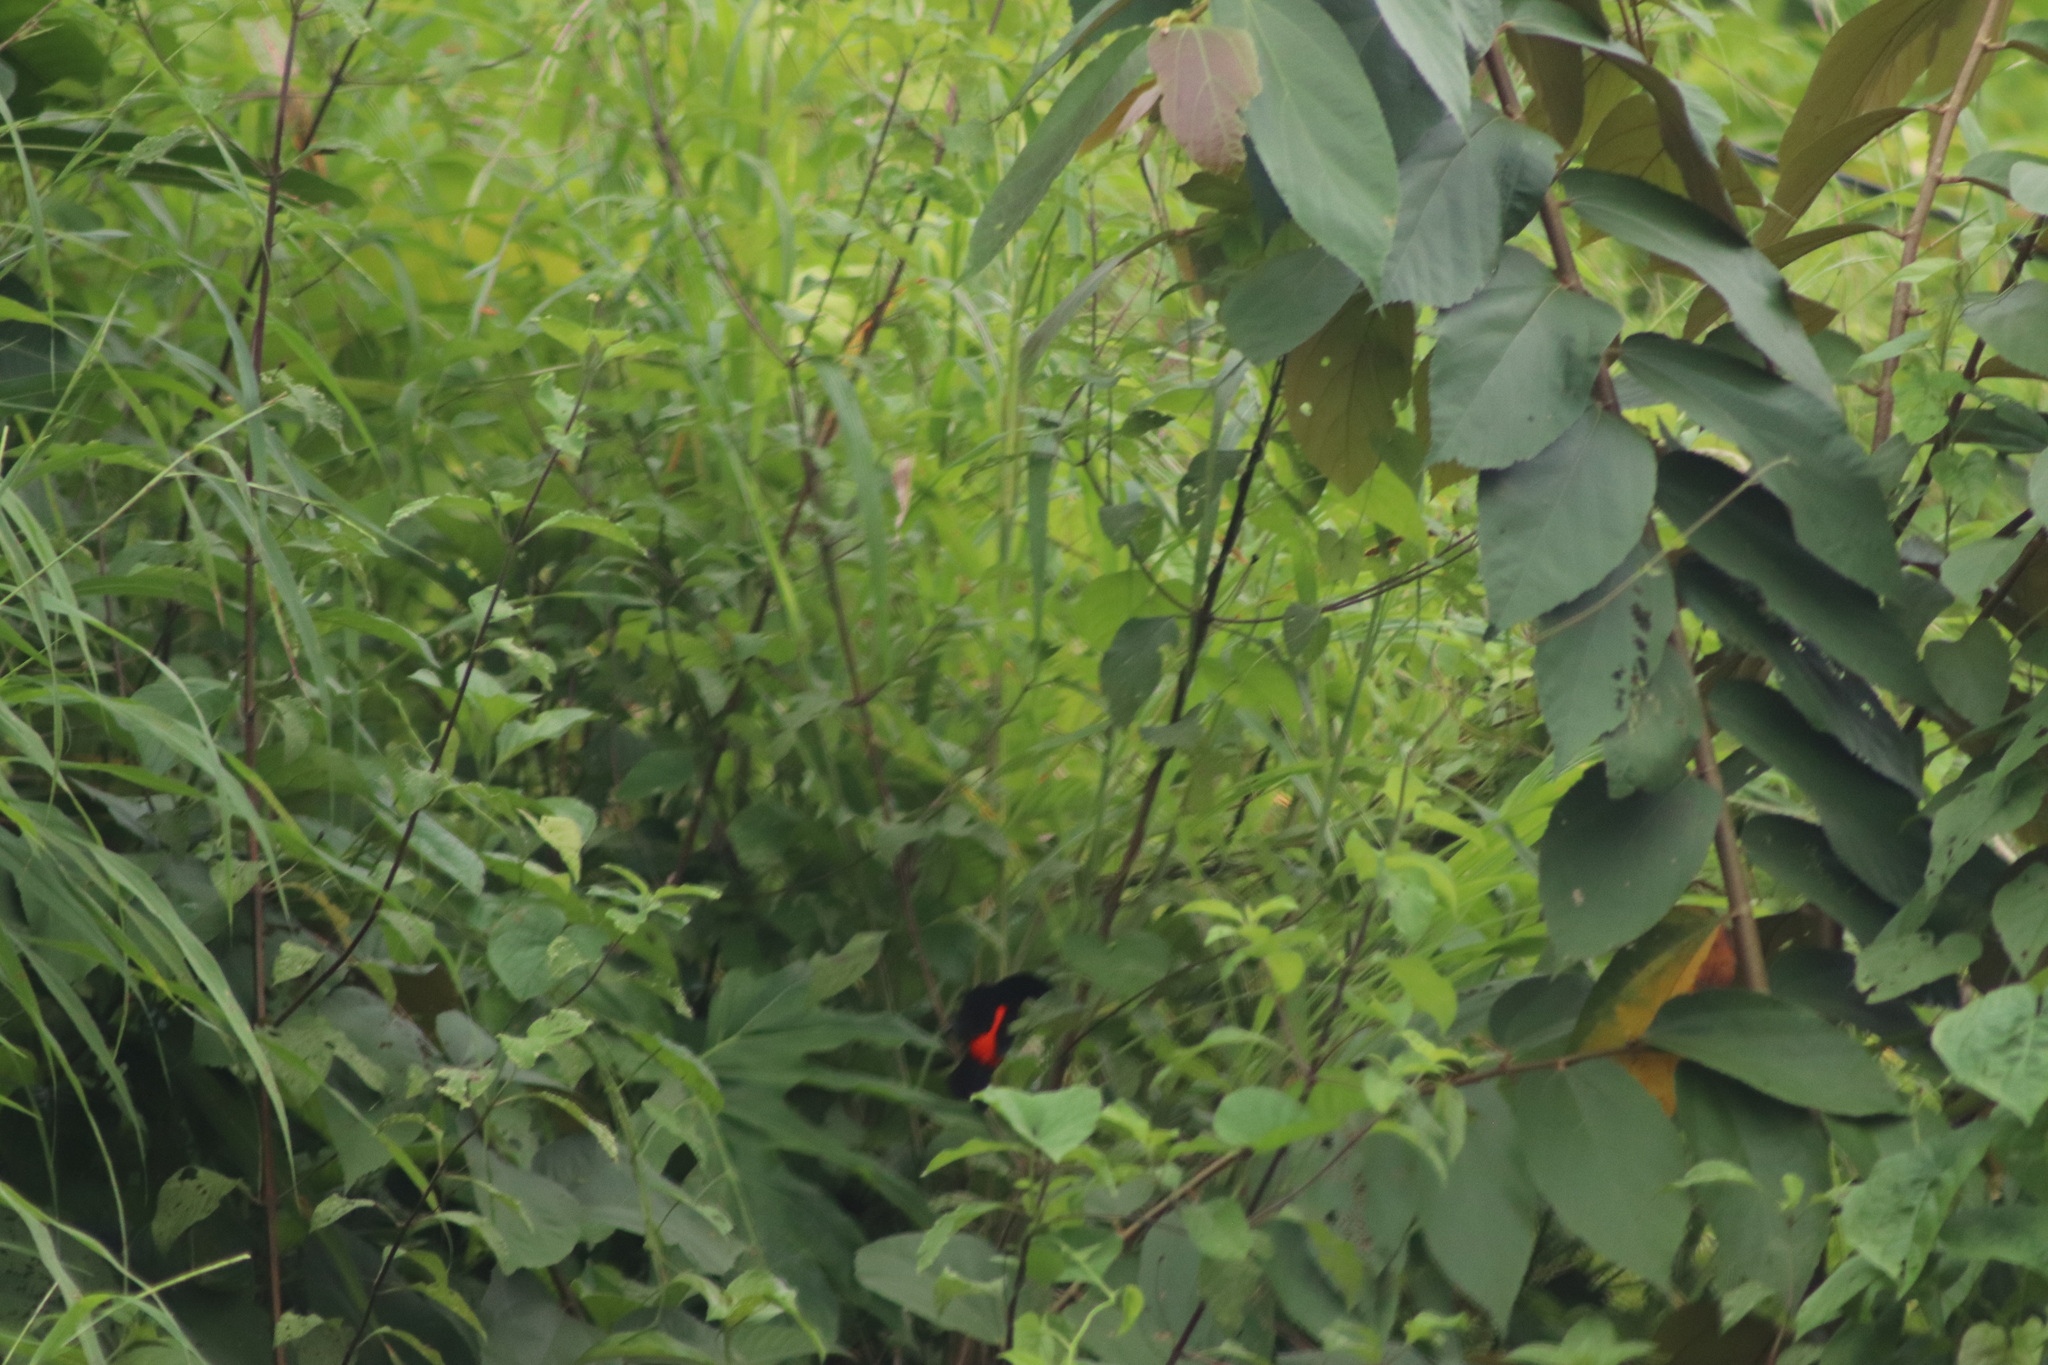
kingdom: Animalia
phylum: Chordata
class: Aves
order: Passeriformes
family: Thraupidae
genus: Ramphocelus
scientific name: Ramphocelus passerinii
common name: Passerini's tanager
